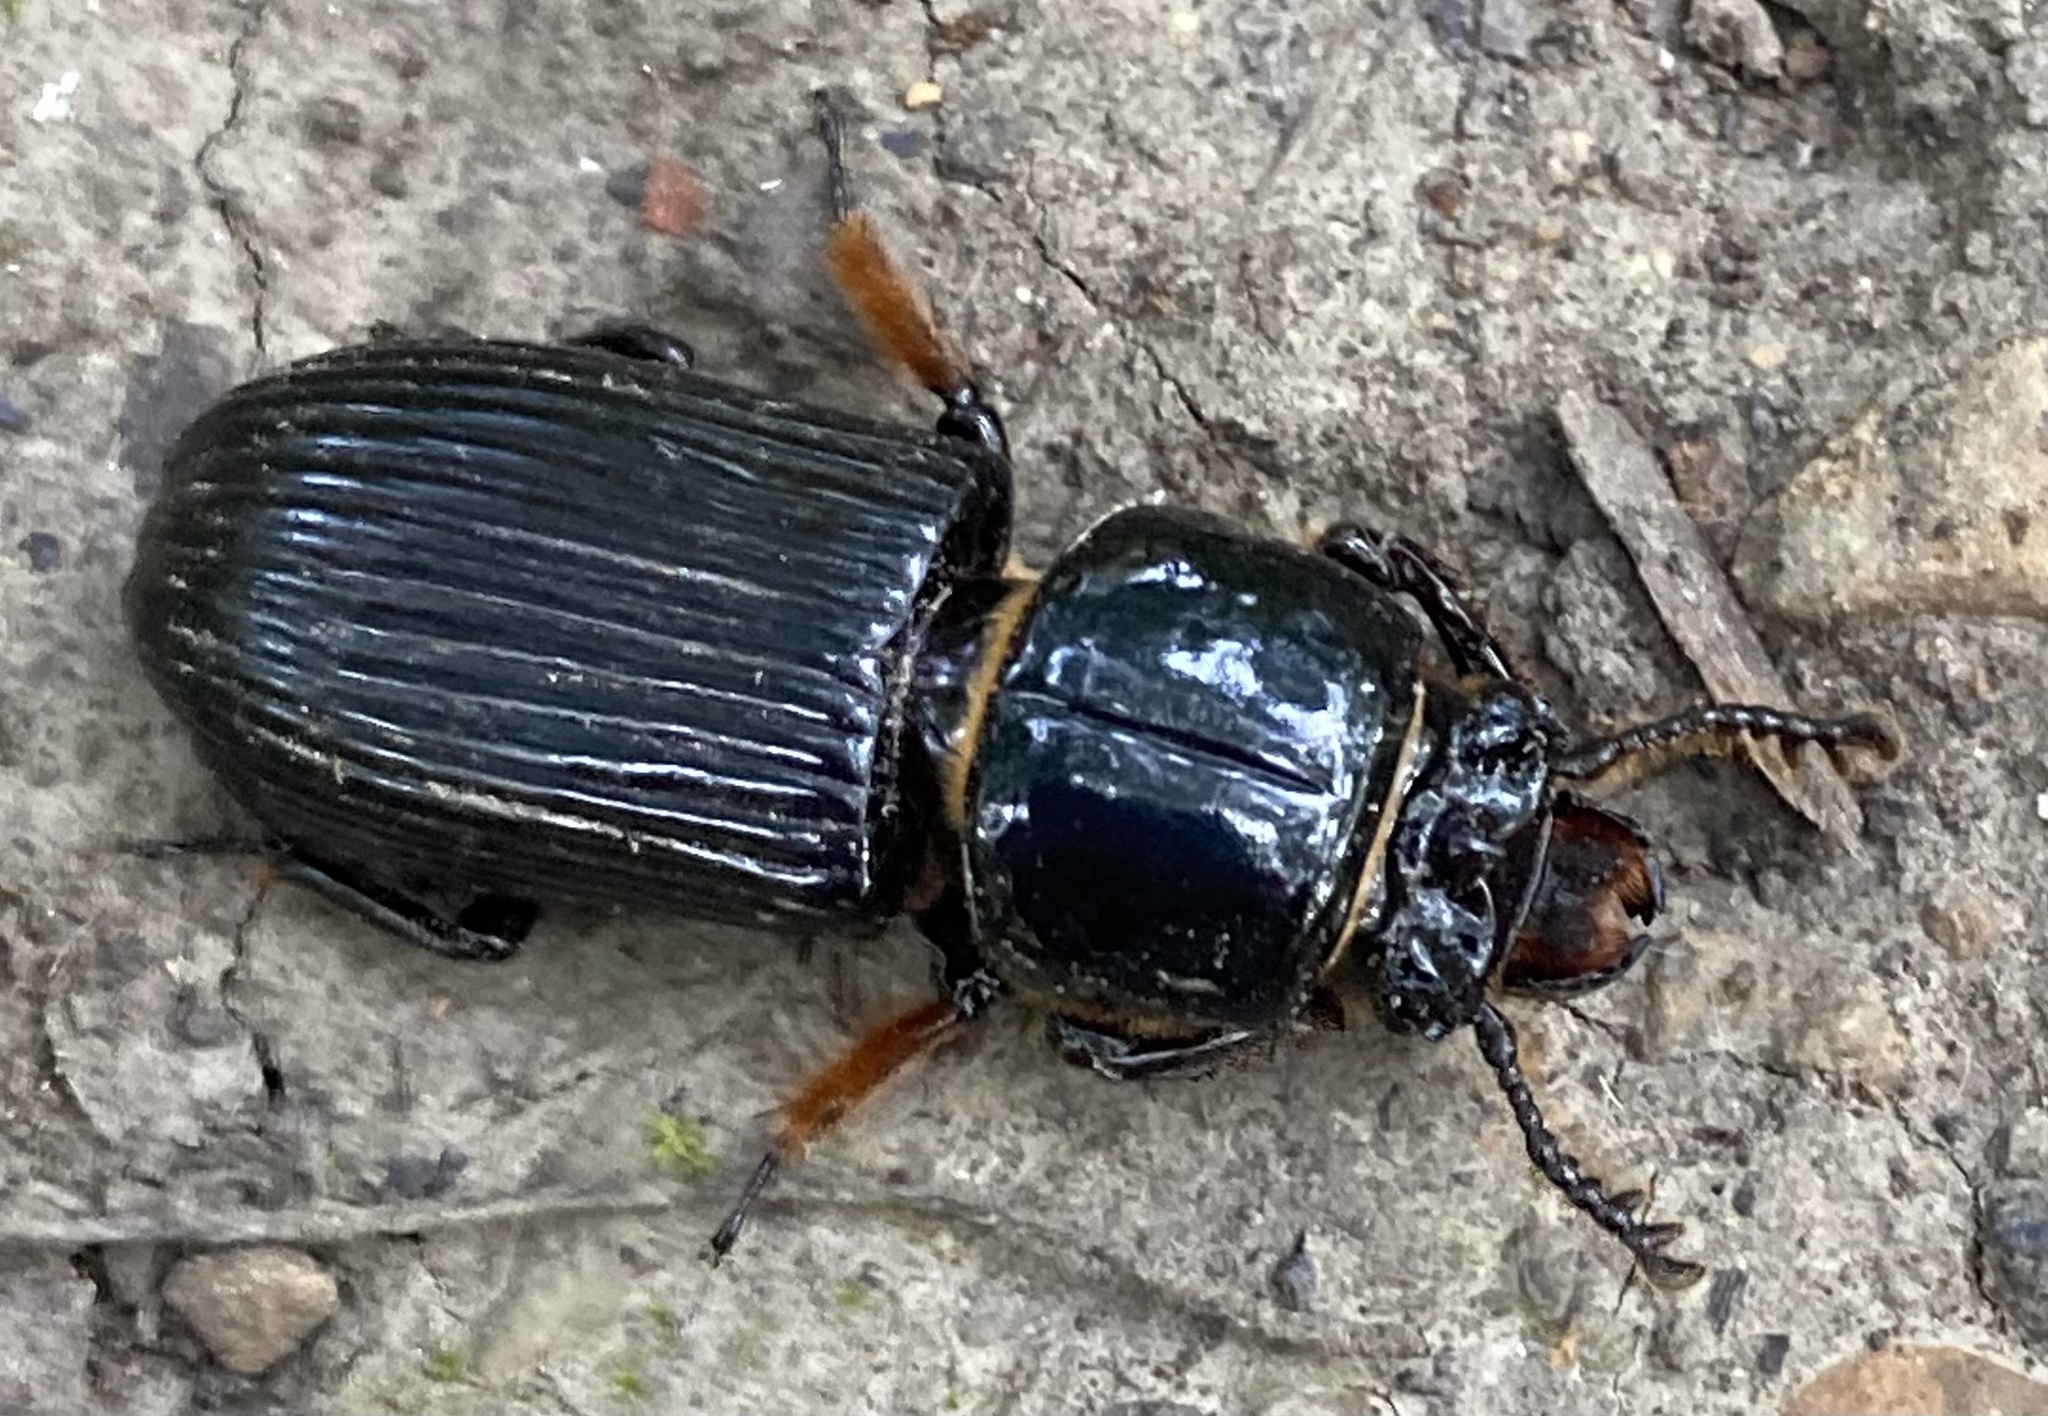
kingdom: Animalia
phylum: Arthropoda
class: Insecta
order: Coleoptera
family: Passalidae
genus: Odontotaenius
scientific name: Odontotaenius disjunctus
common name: Patent leather beetle
